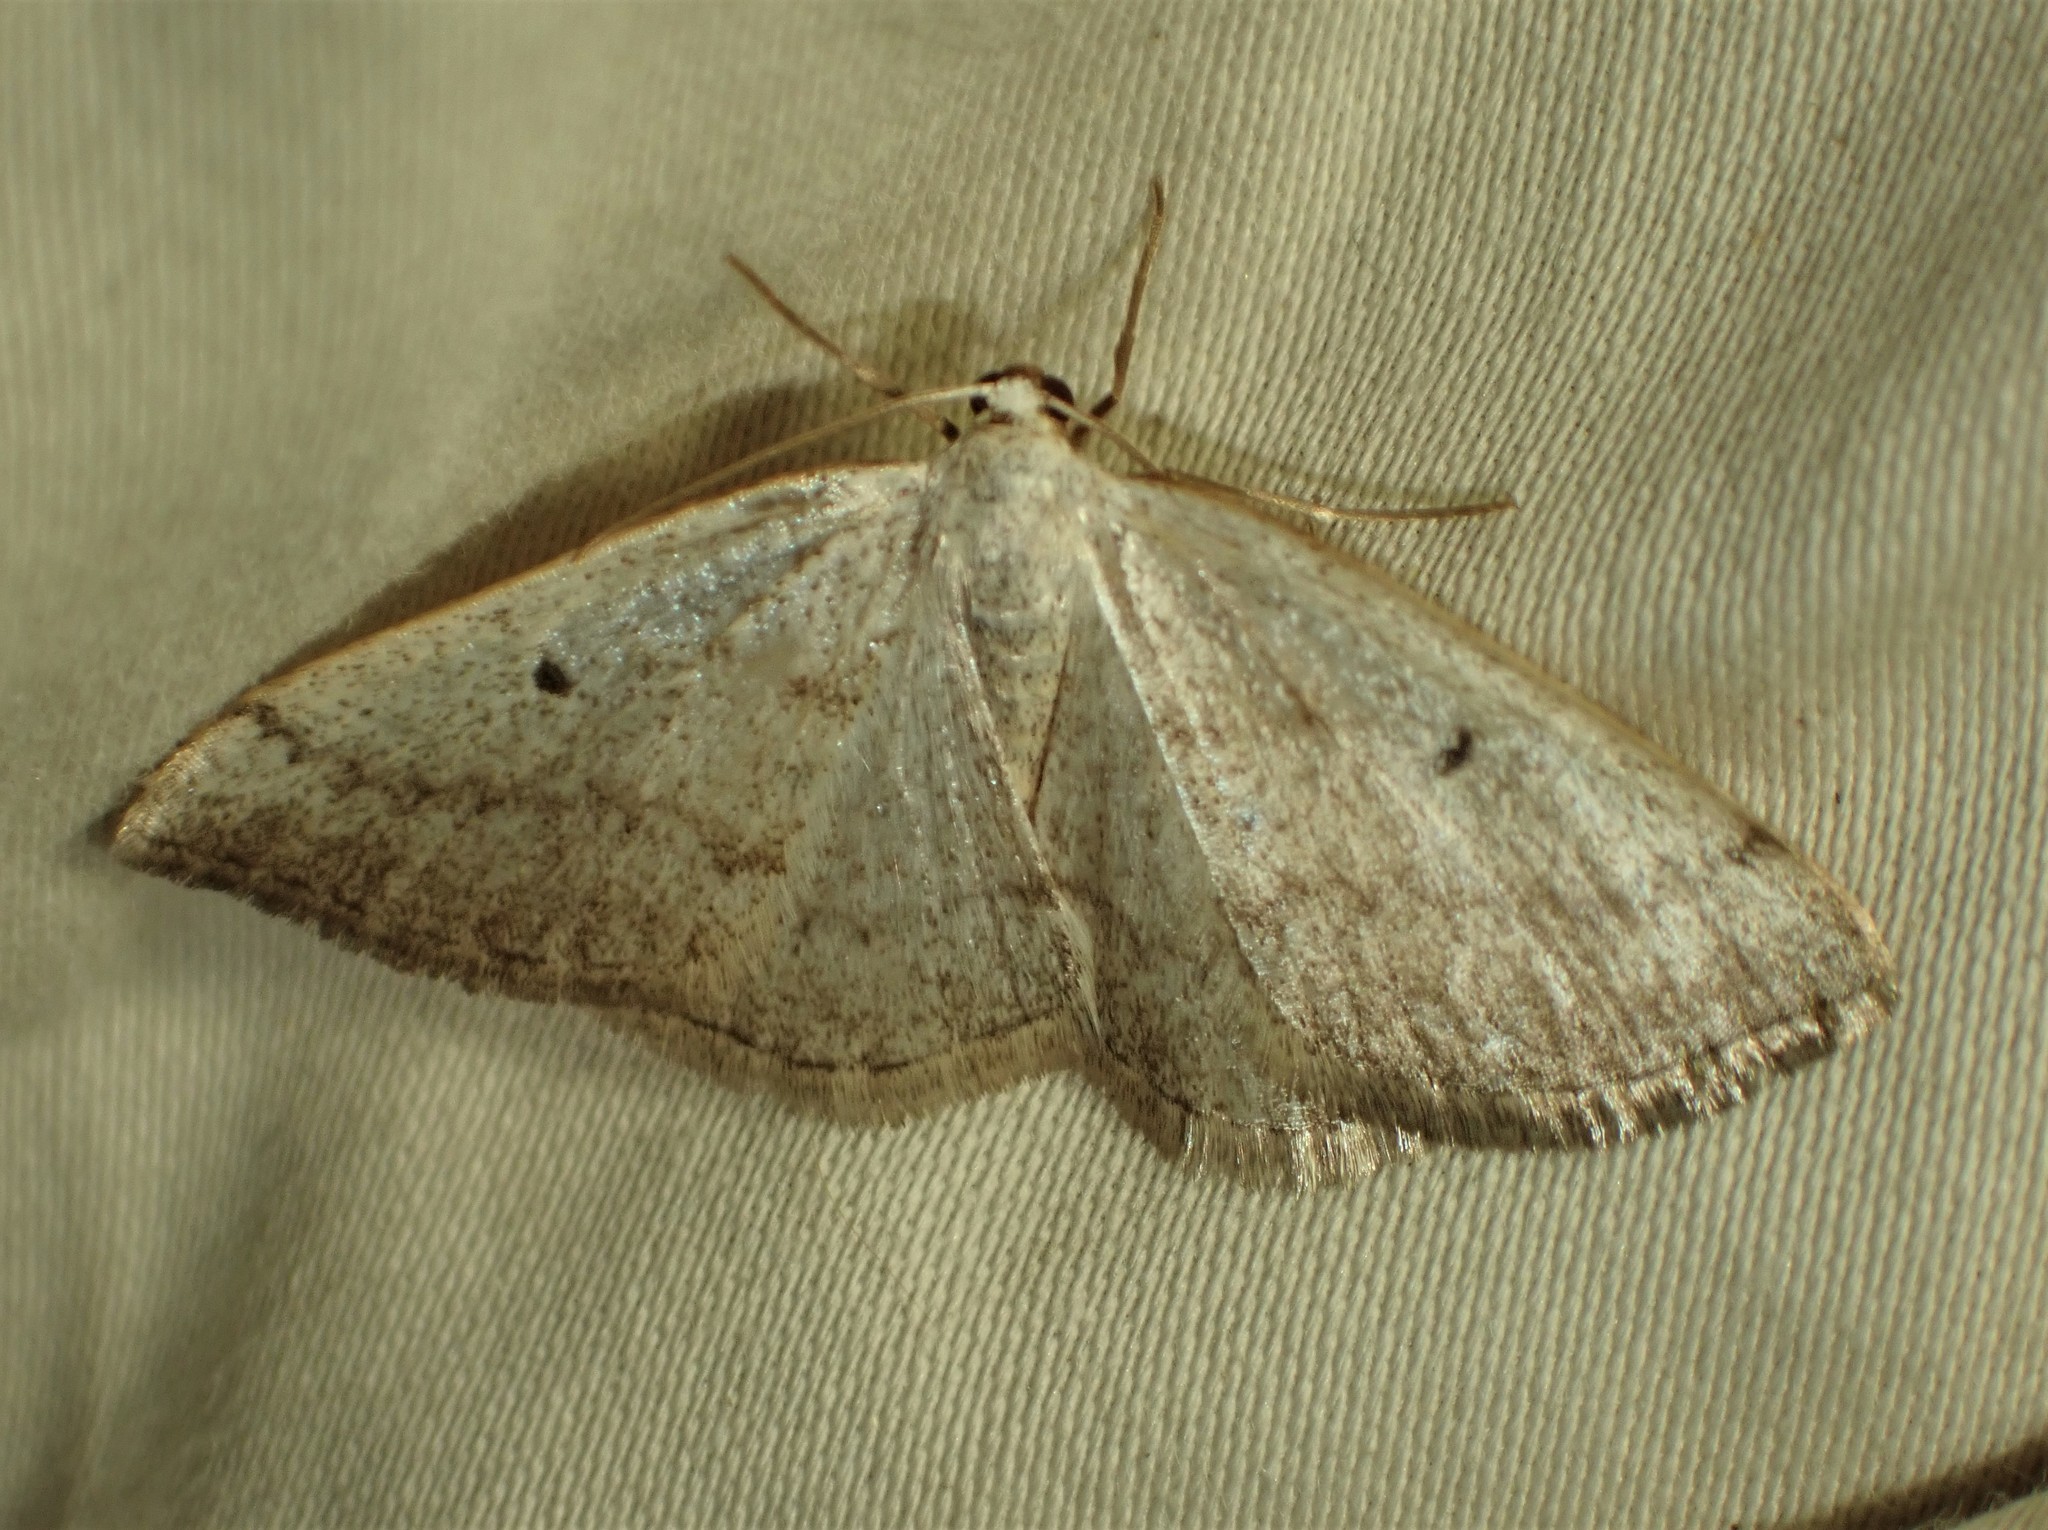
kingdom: Animalia
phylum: Arthropoda
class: Insecta
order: Lepidoptera
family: Geometridae
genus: Lomographa
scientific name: Lomographa glomeraria
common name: Gray spring moth
